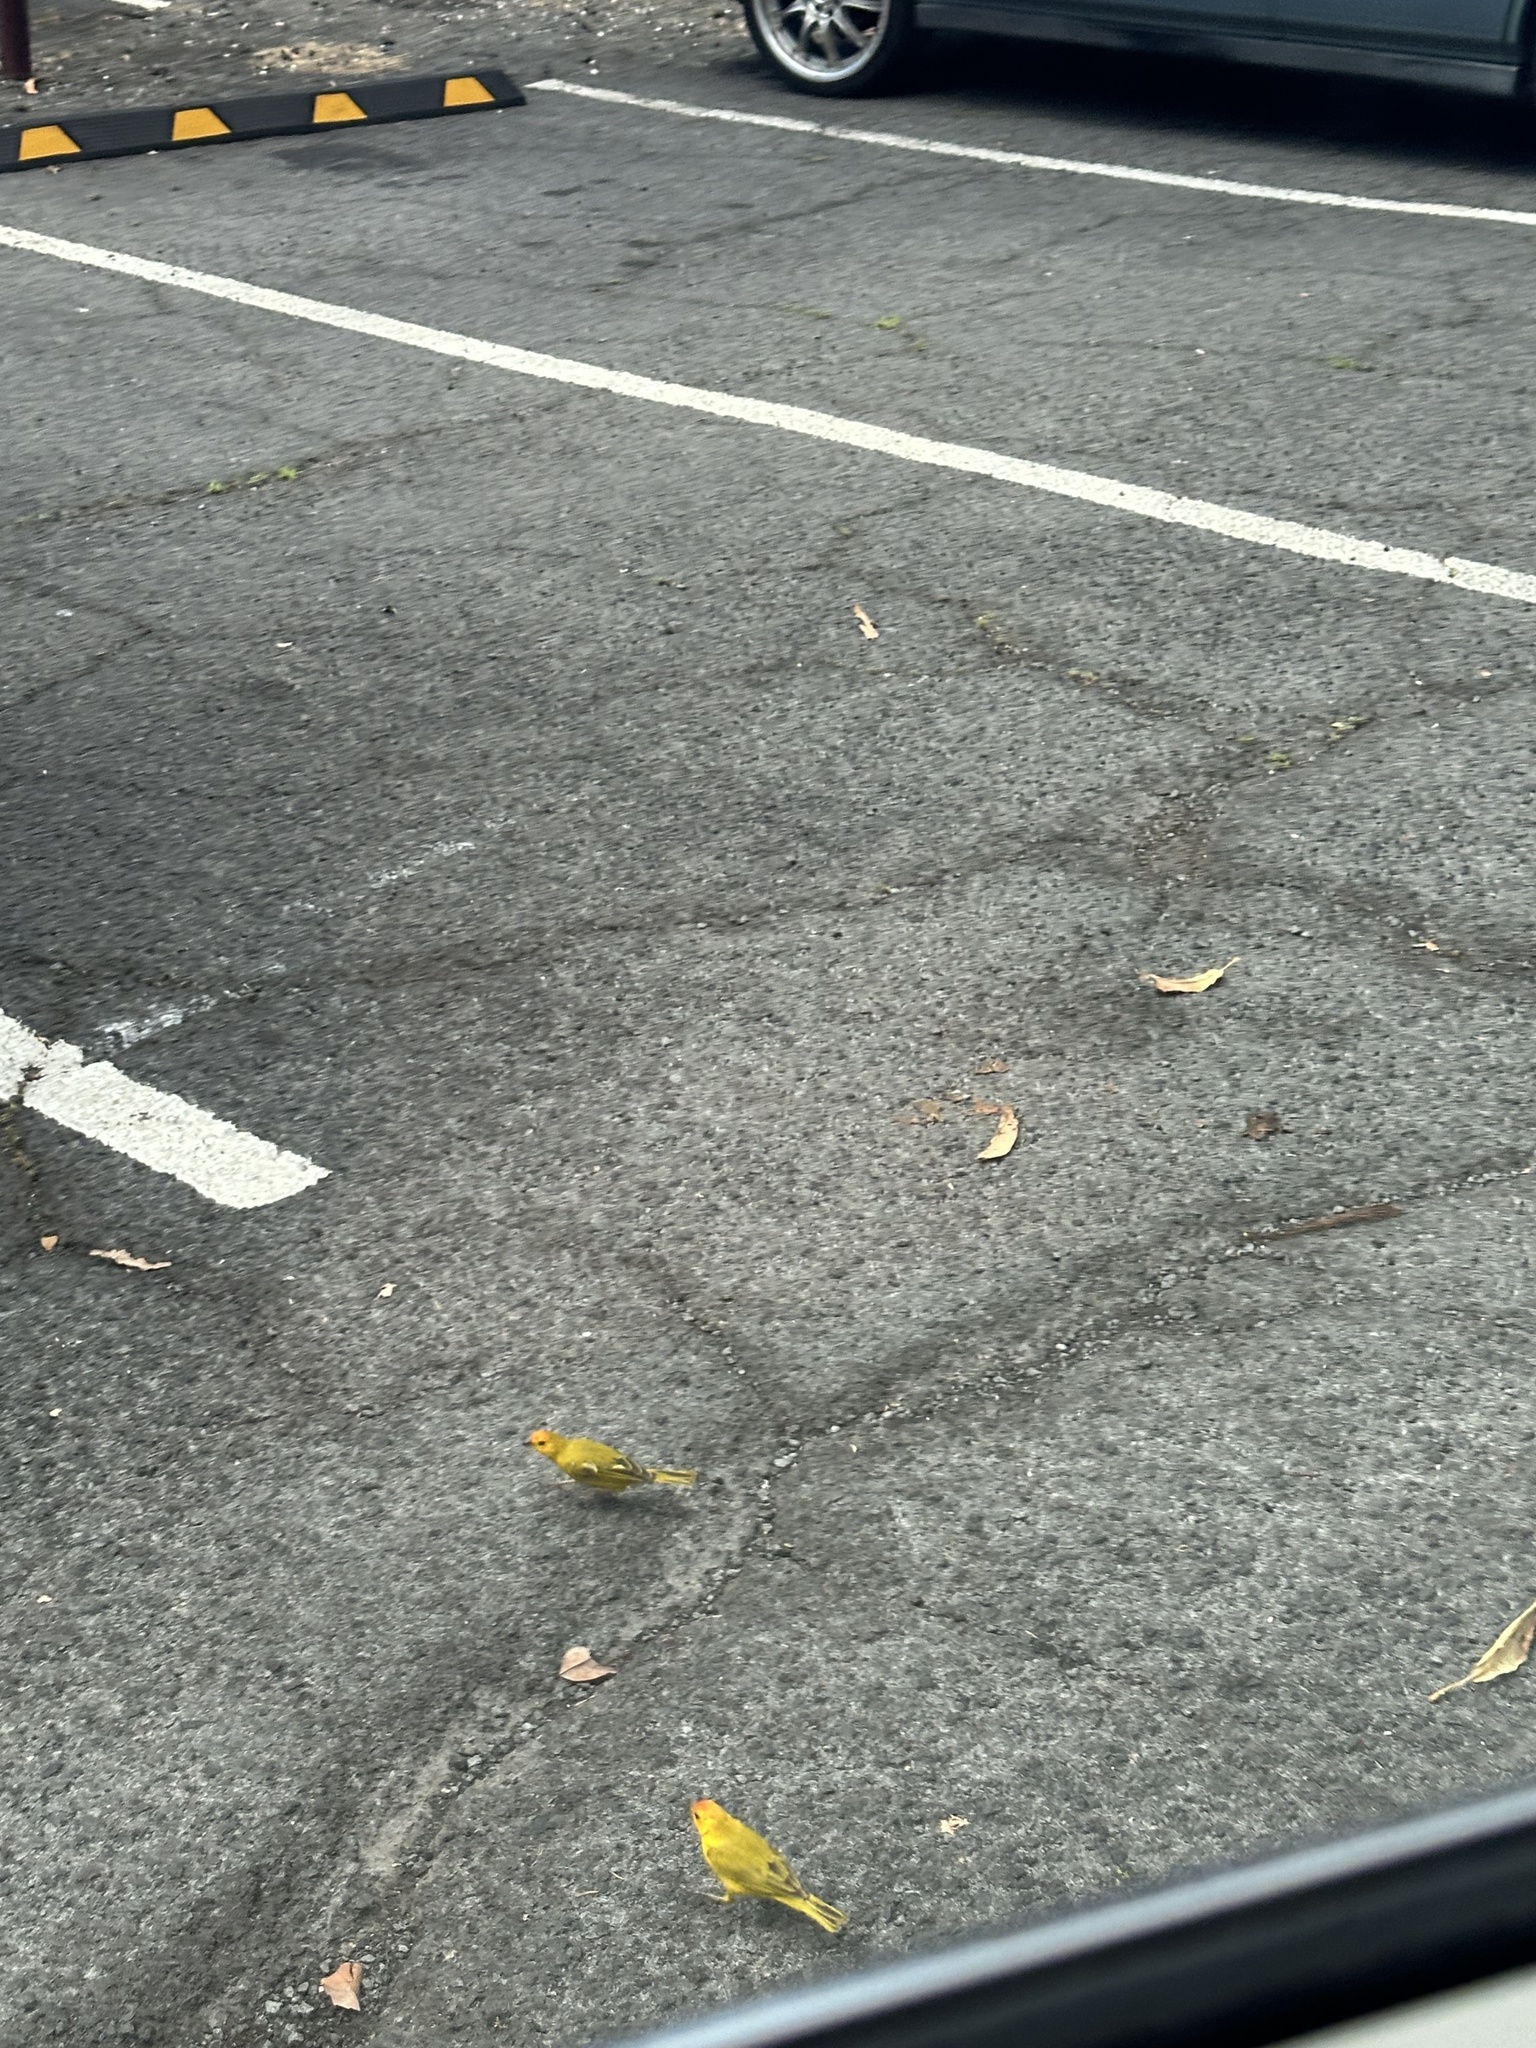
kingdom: Animalia
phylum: Chordata
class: Aves
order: Passeriformes
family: Thraupidae
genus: Sicalis
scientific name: Sicalis flaveola
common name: Saffron finch
